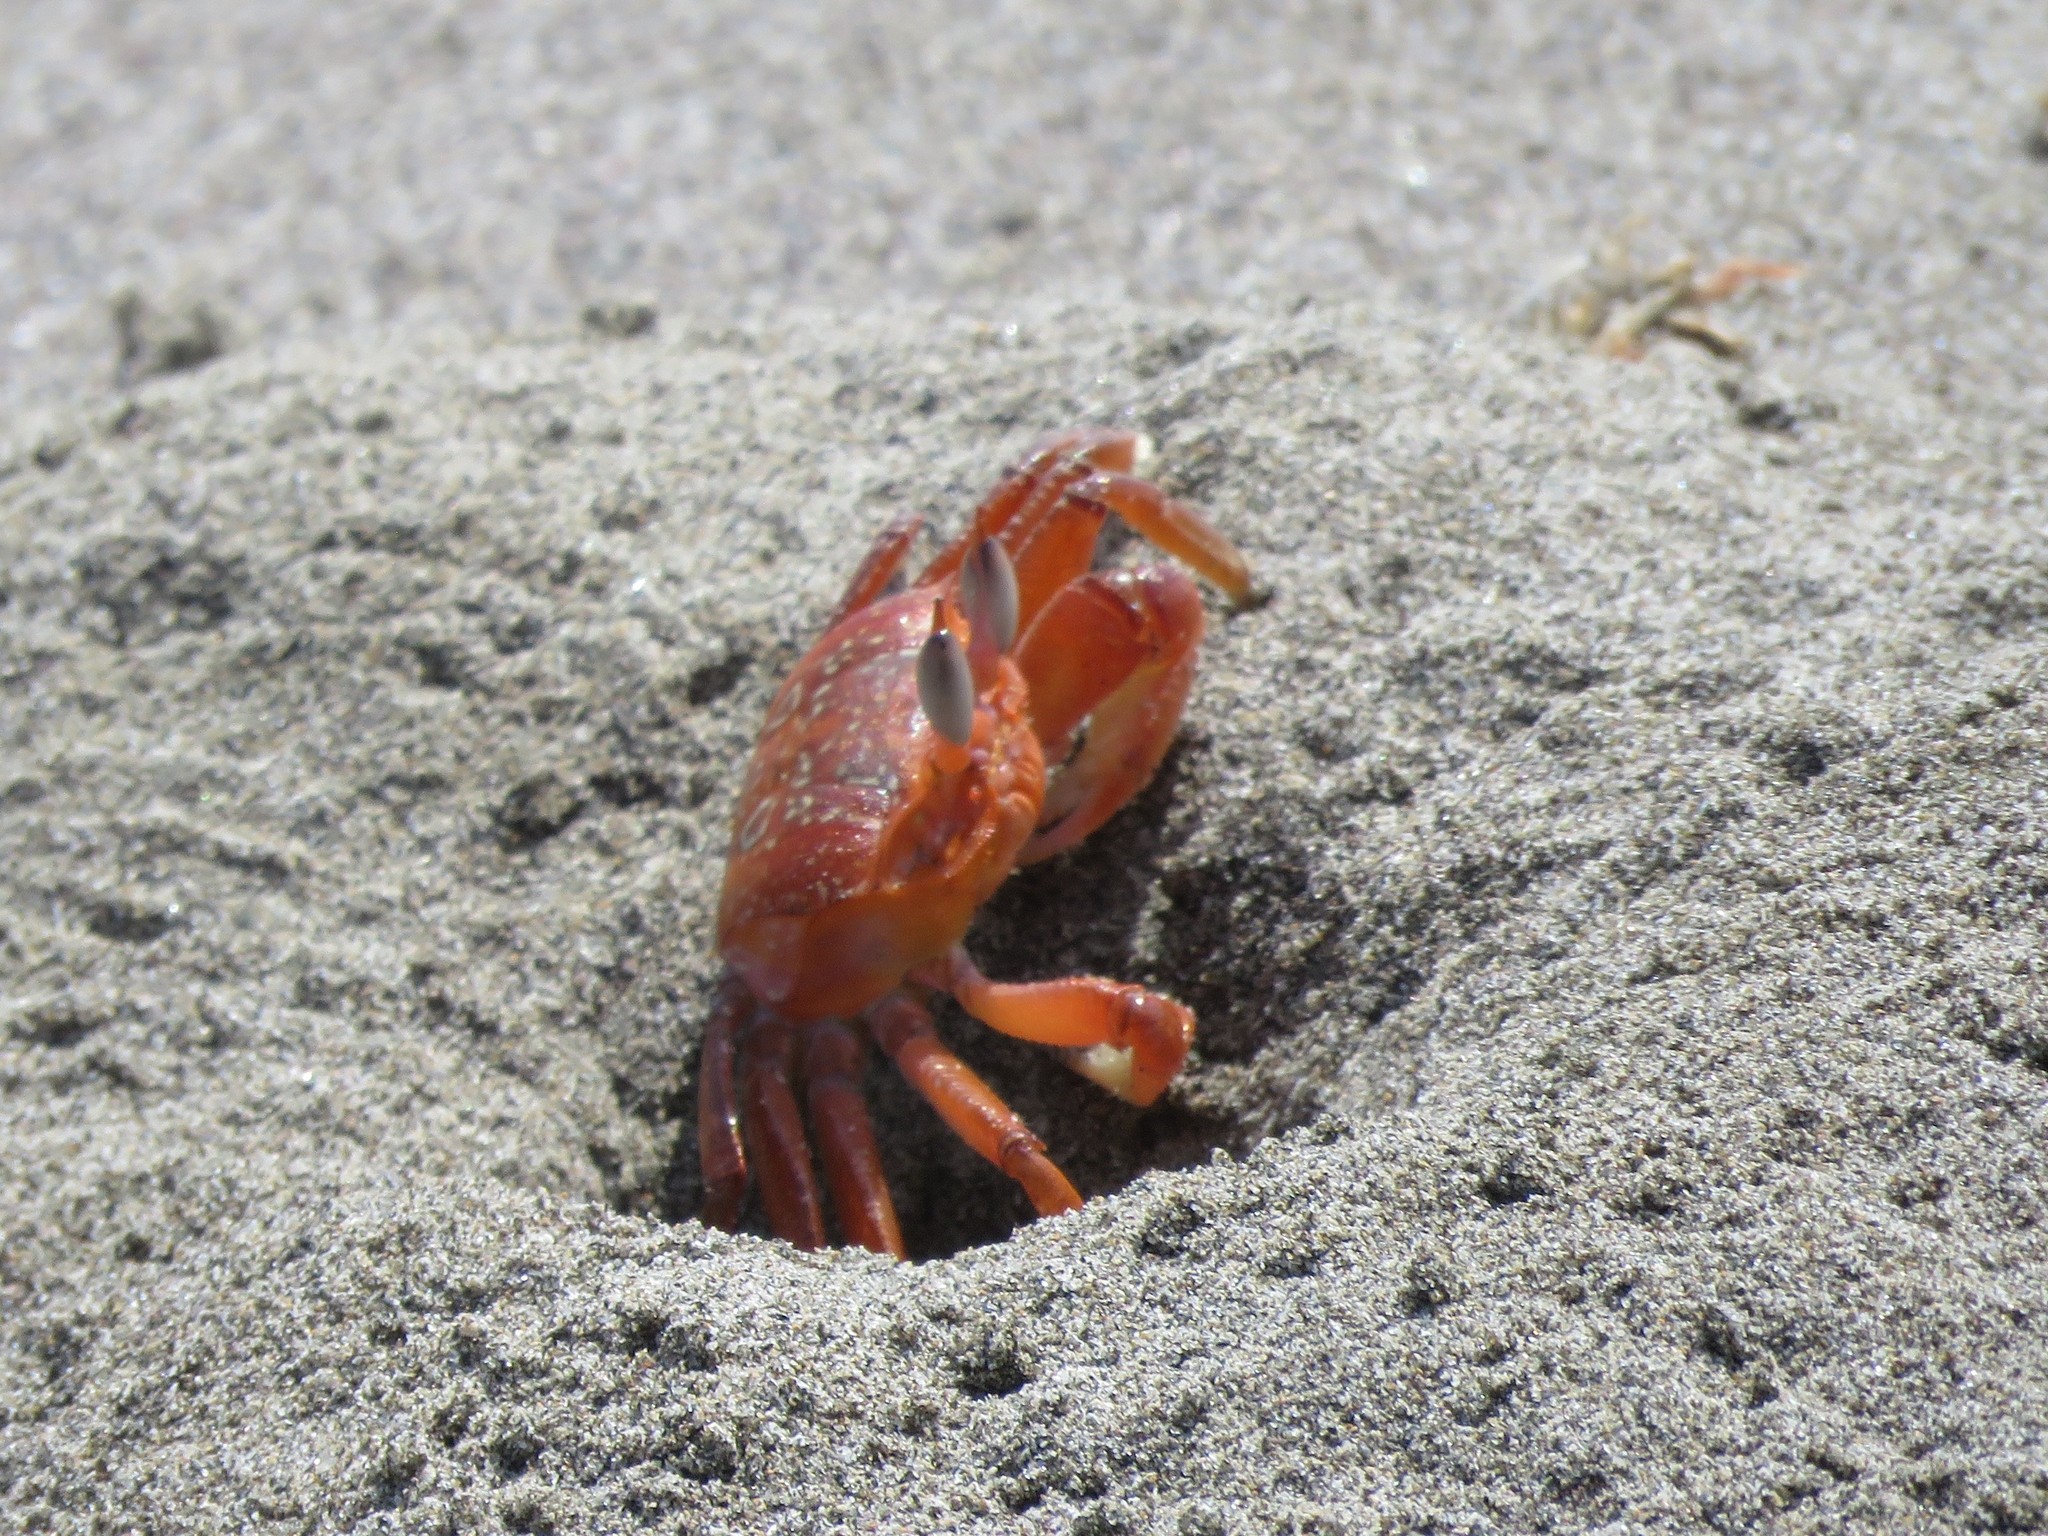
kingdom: Animalia
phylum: Arthropoda
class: Malacostraca
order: Decapoda
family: Ocypodidae
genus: Ocypode
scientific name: Ocypode gaudichaudii
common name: Pacific ghost crab
